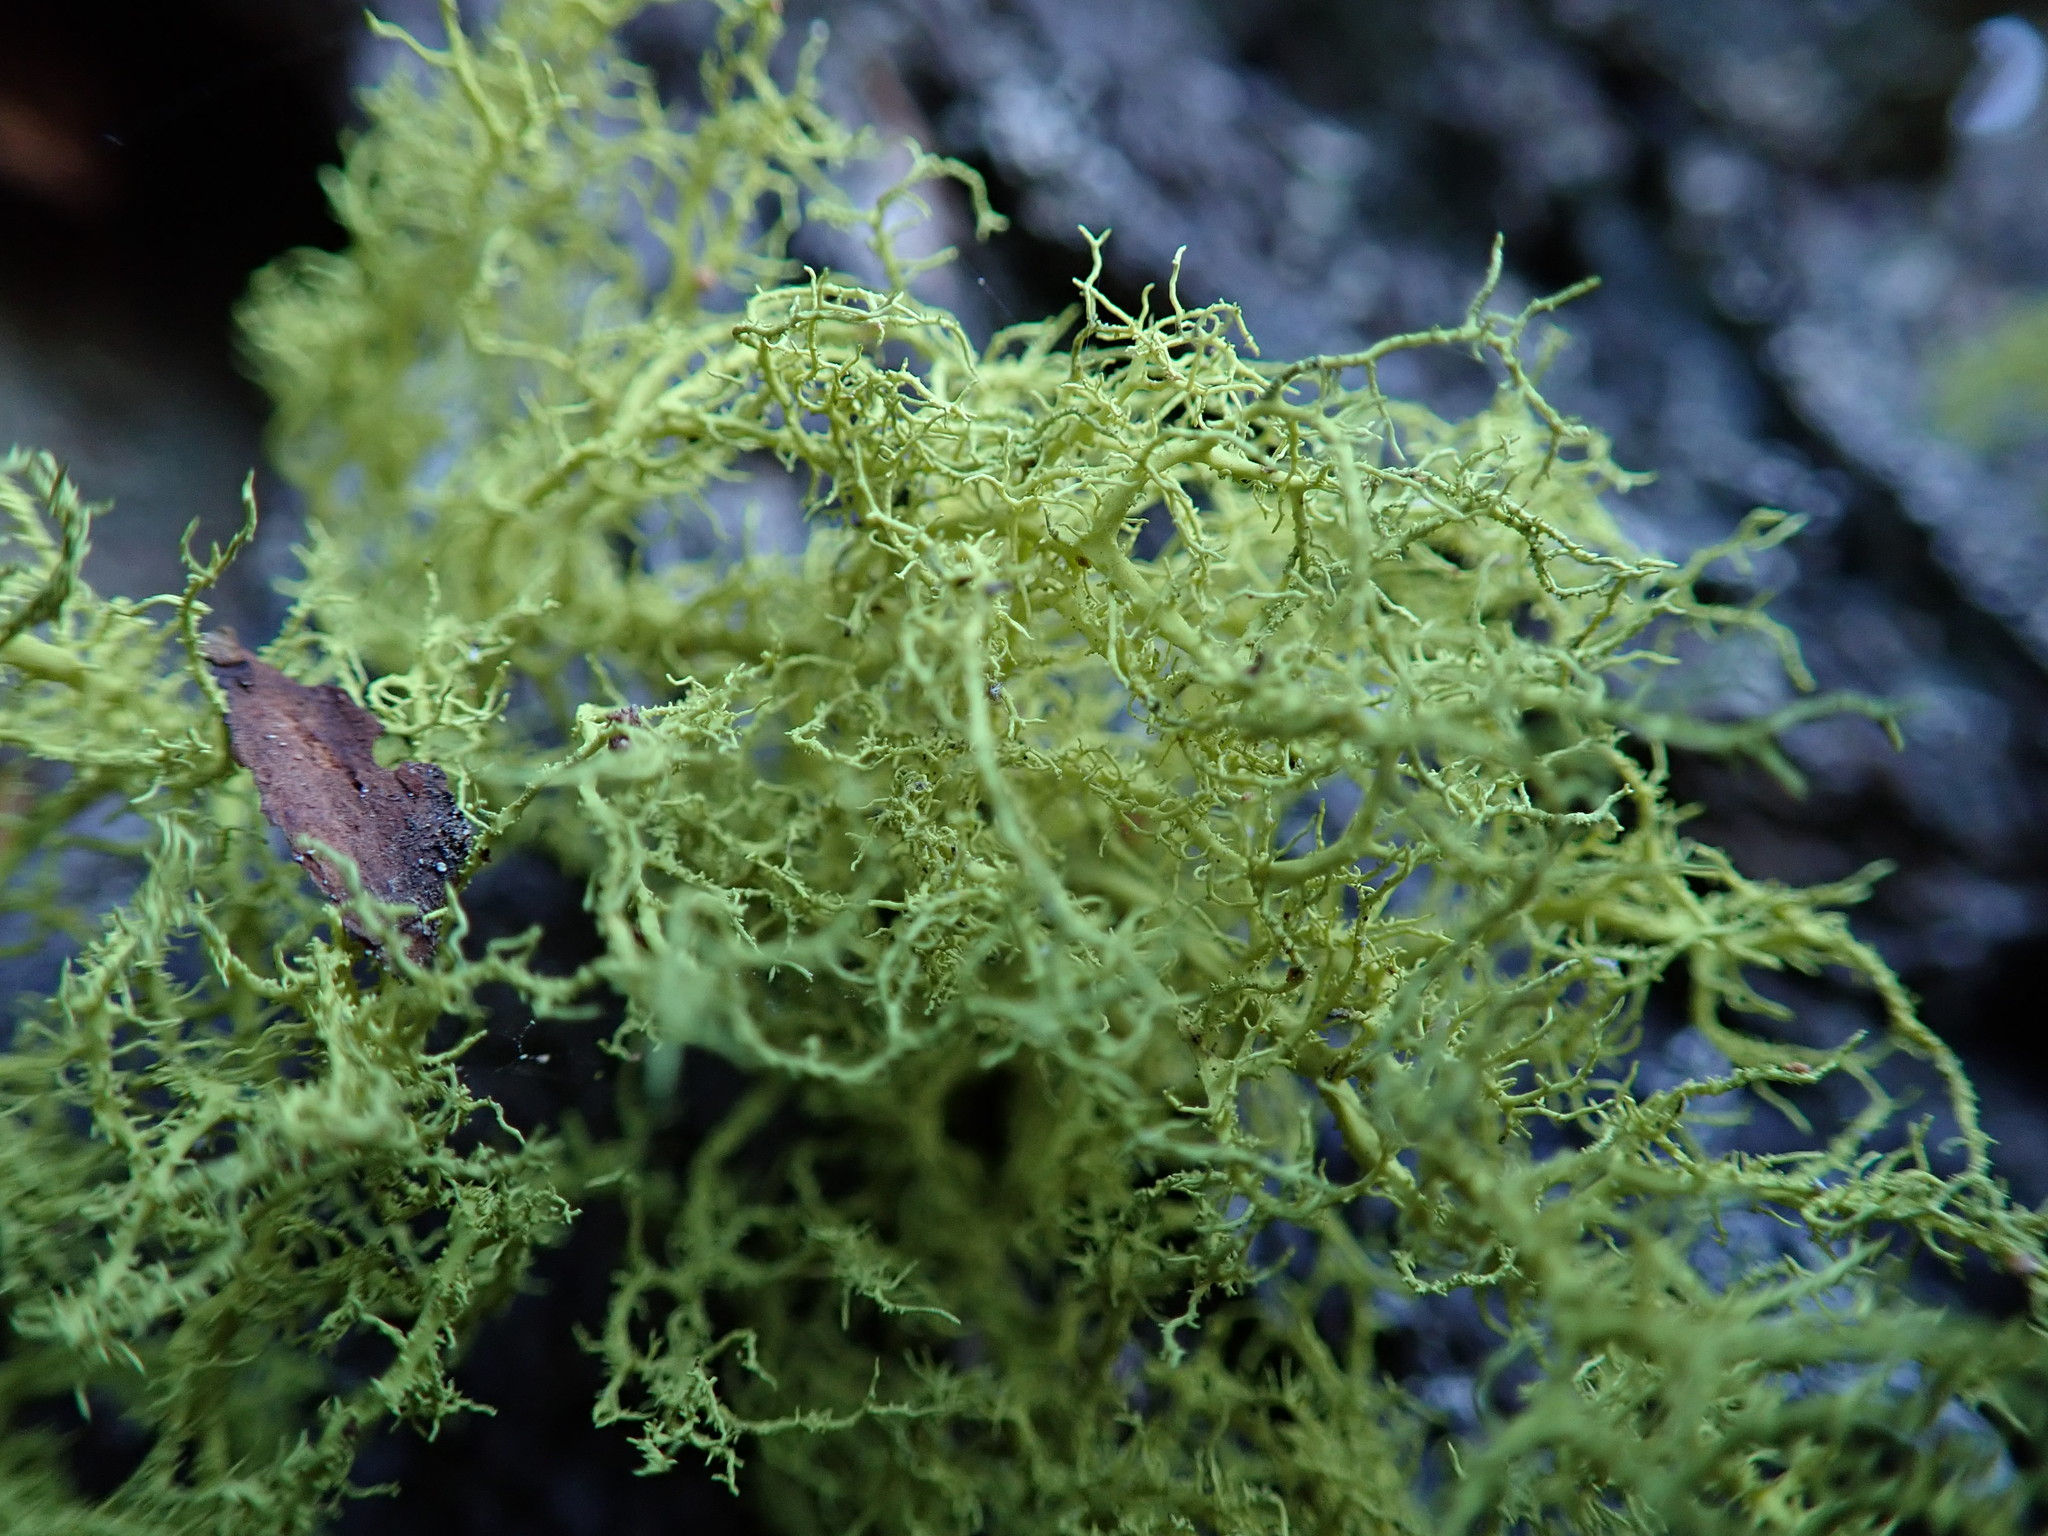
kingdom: Fungi
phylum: Ascomycota
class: Lecanoromycetes
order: Lecanorales
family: Parmeliaceae
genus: Letharia
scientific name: Letharia vulpina
